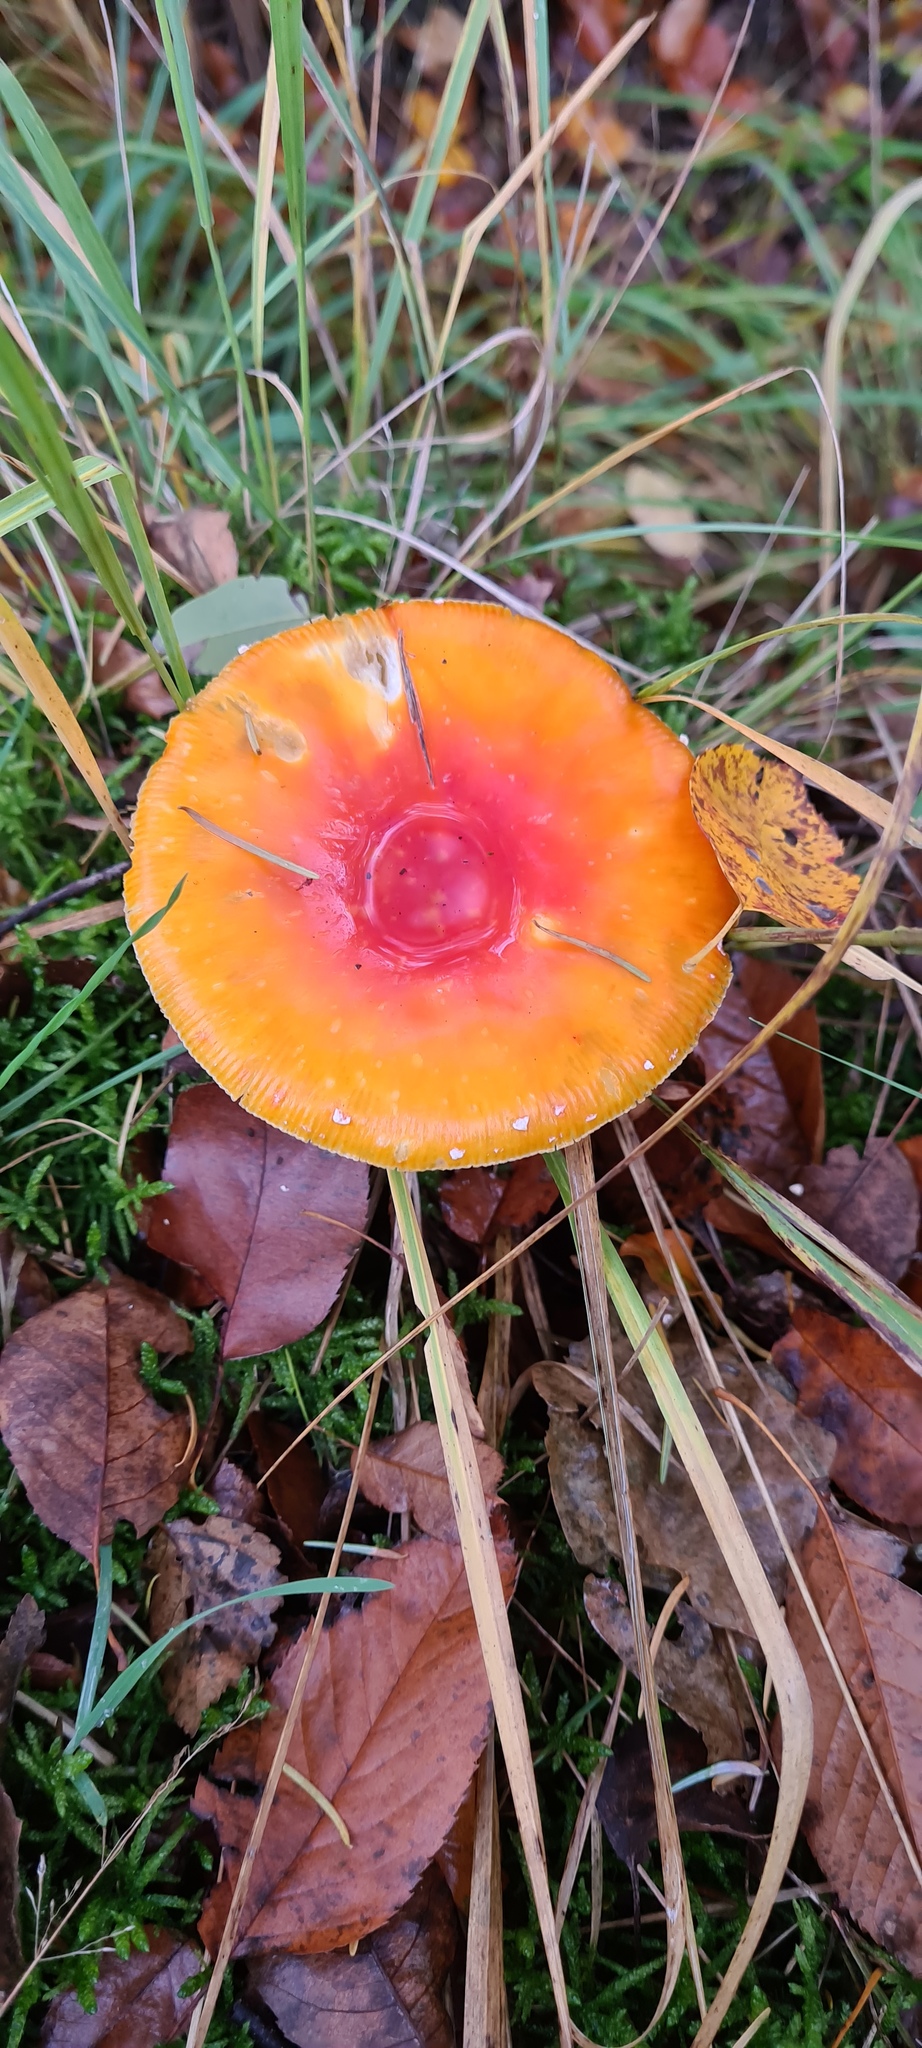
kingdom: Fungi
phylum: Basidiomycota
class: Agaricomycetes
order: Agaricales
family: Amanitaceae
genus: Amanita
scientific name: Amanita muscaria
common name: Fly agaric
